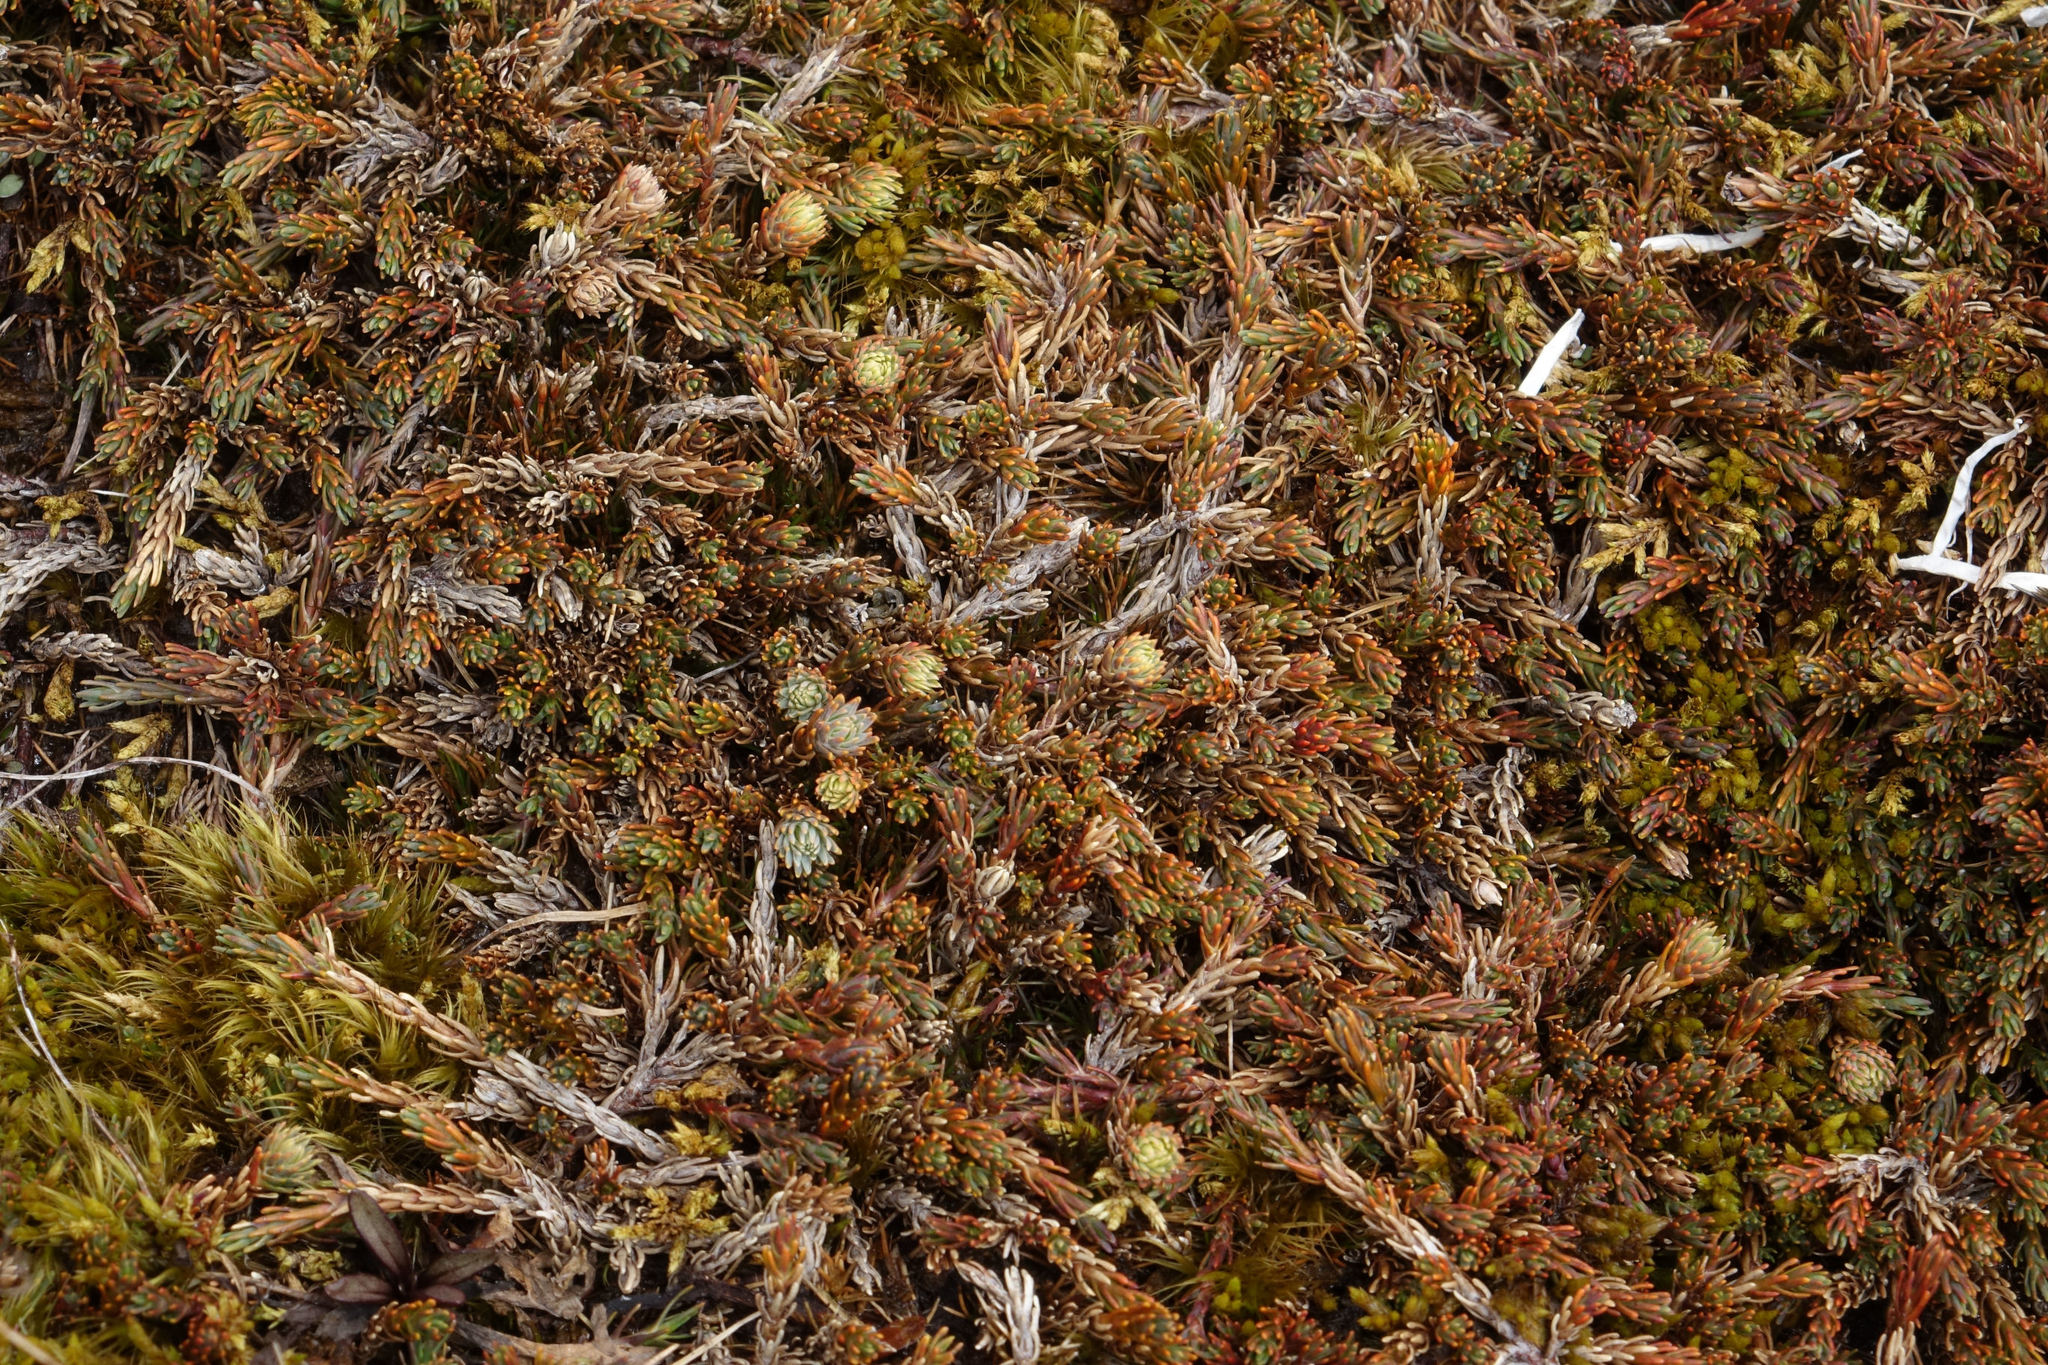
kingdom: Plantae
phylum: Tracheophyta
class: Magnoliopsida
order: Ericales
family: Ericaceae
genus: Dracophyllum
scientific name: Dracophyllum prostratum
